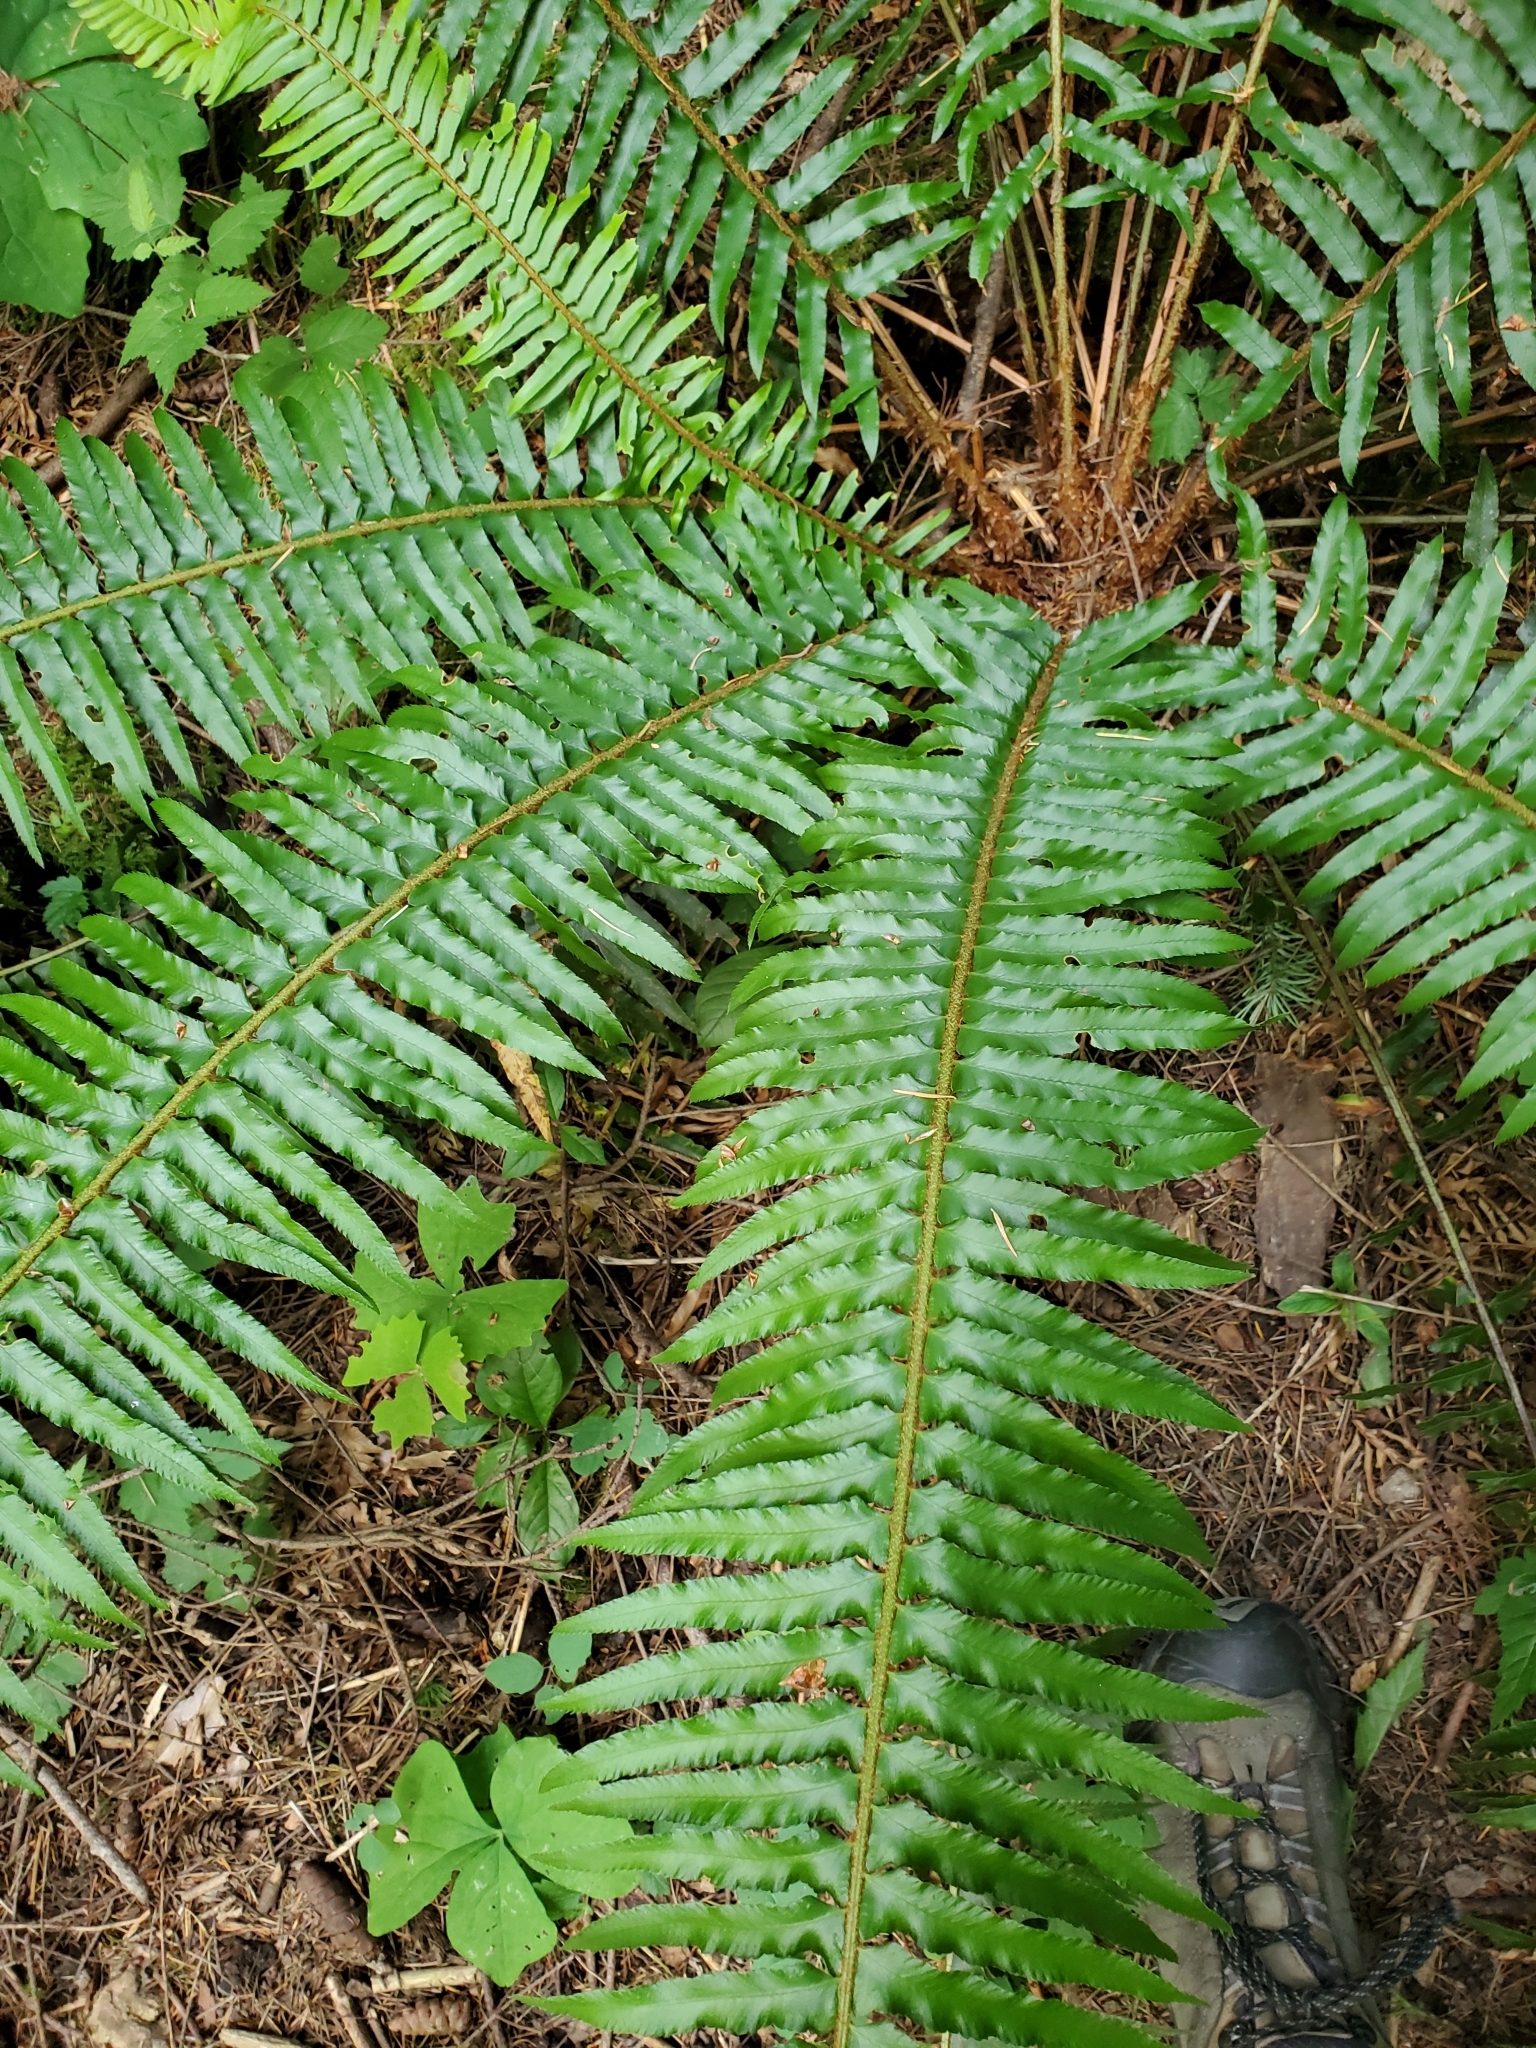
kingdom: Plantae
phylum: Tracheophyta
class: Polypodiopsida
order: Polypodiales
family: Dryopteridaceae
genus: Polystichum
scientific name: Polystichum munitum
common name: Western sword-fern
